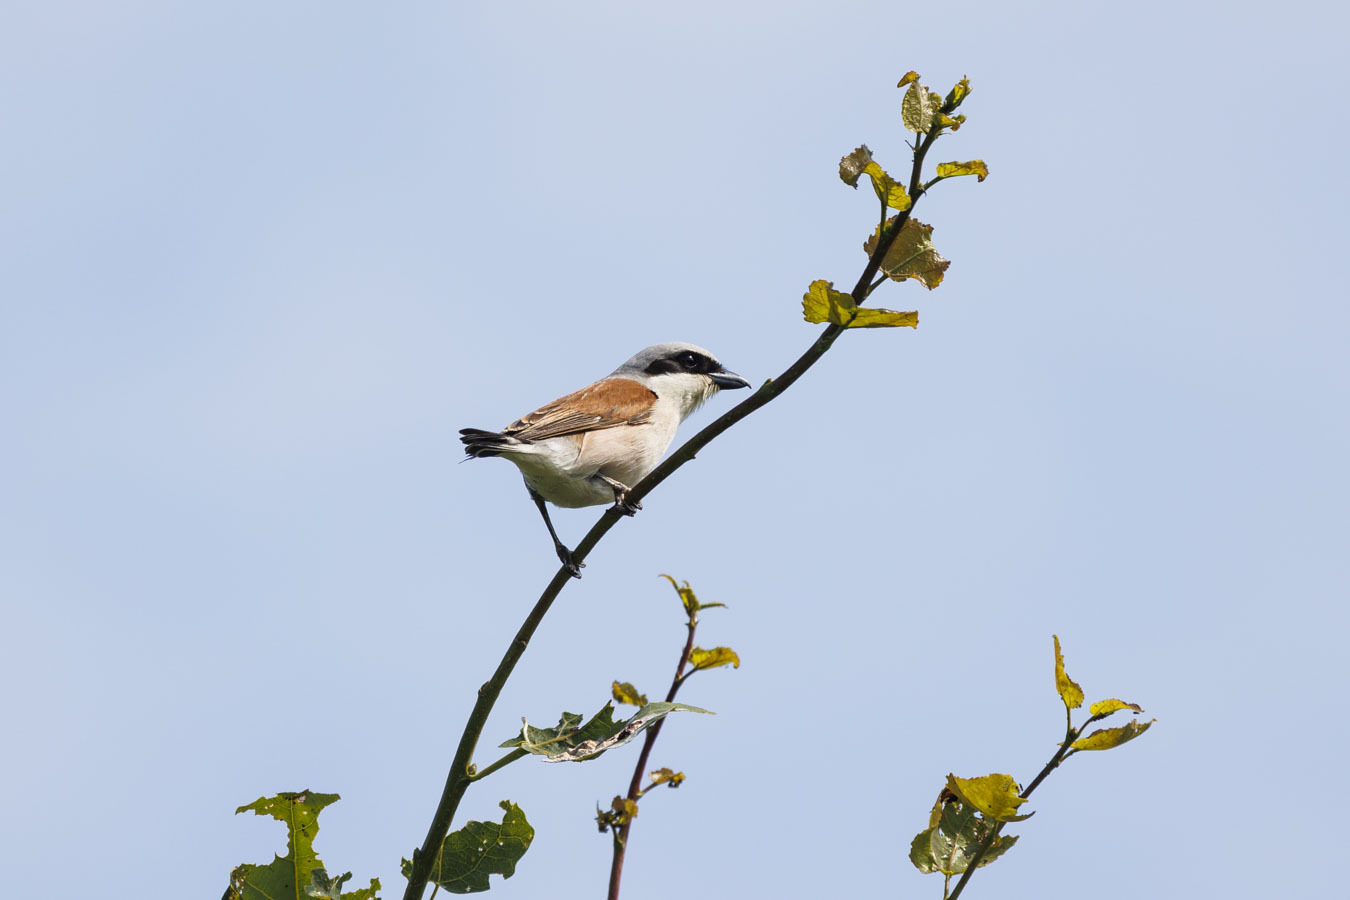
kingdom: Animalia
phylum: Chordata
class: Aves
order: Passeriformes
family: Laniidae
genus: Lanius
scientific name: Lanius collurio
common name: Red-backed shrike
